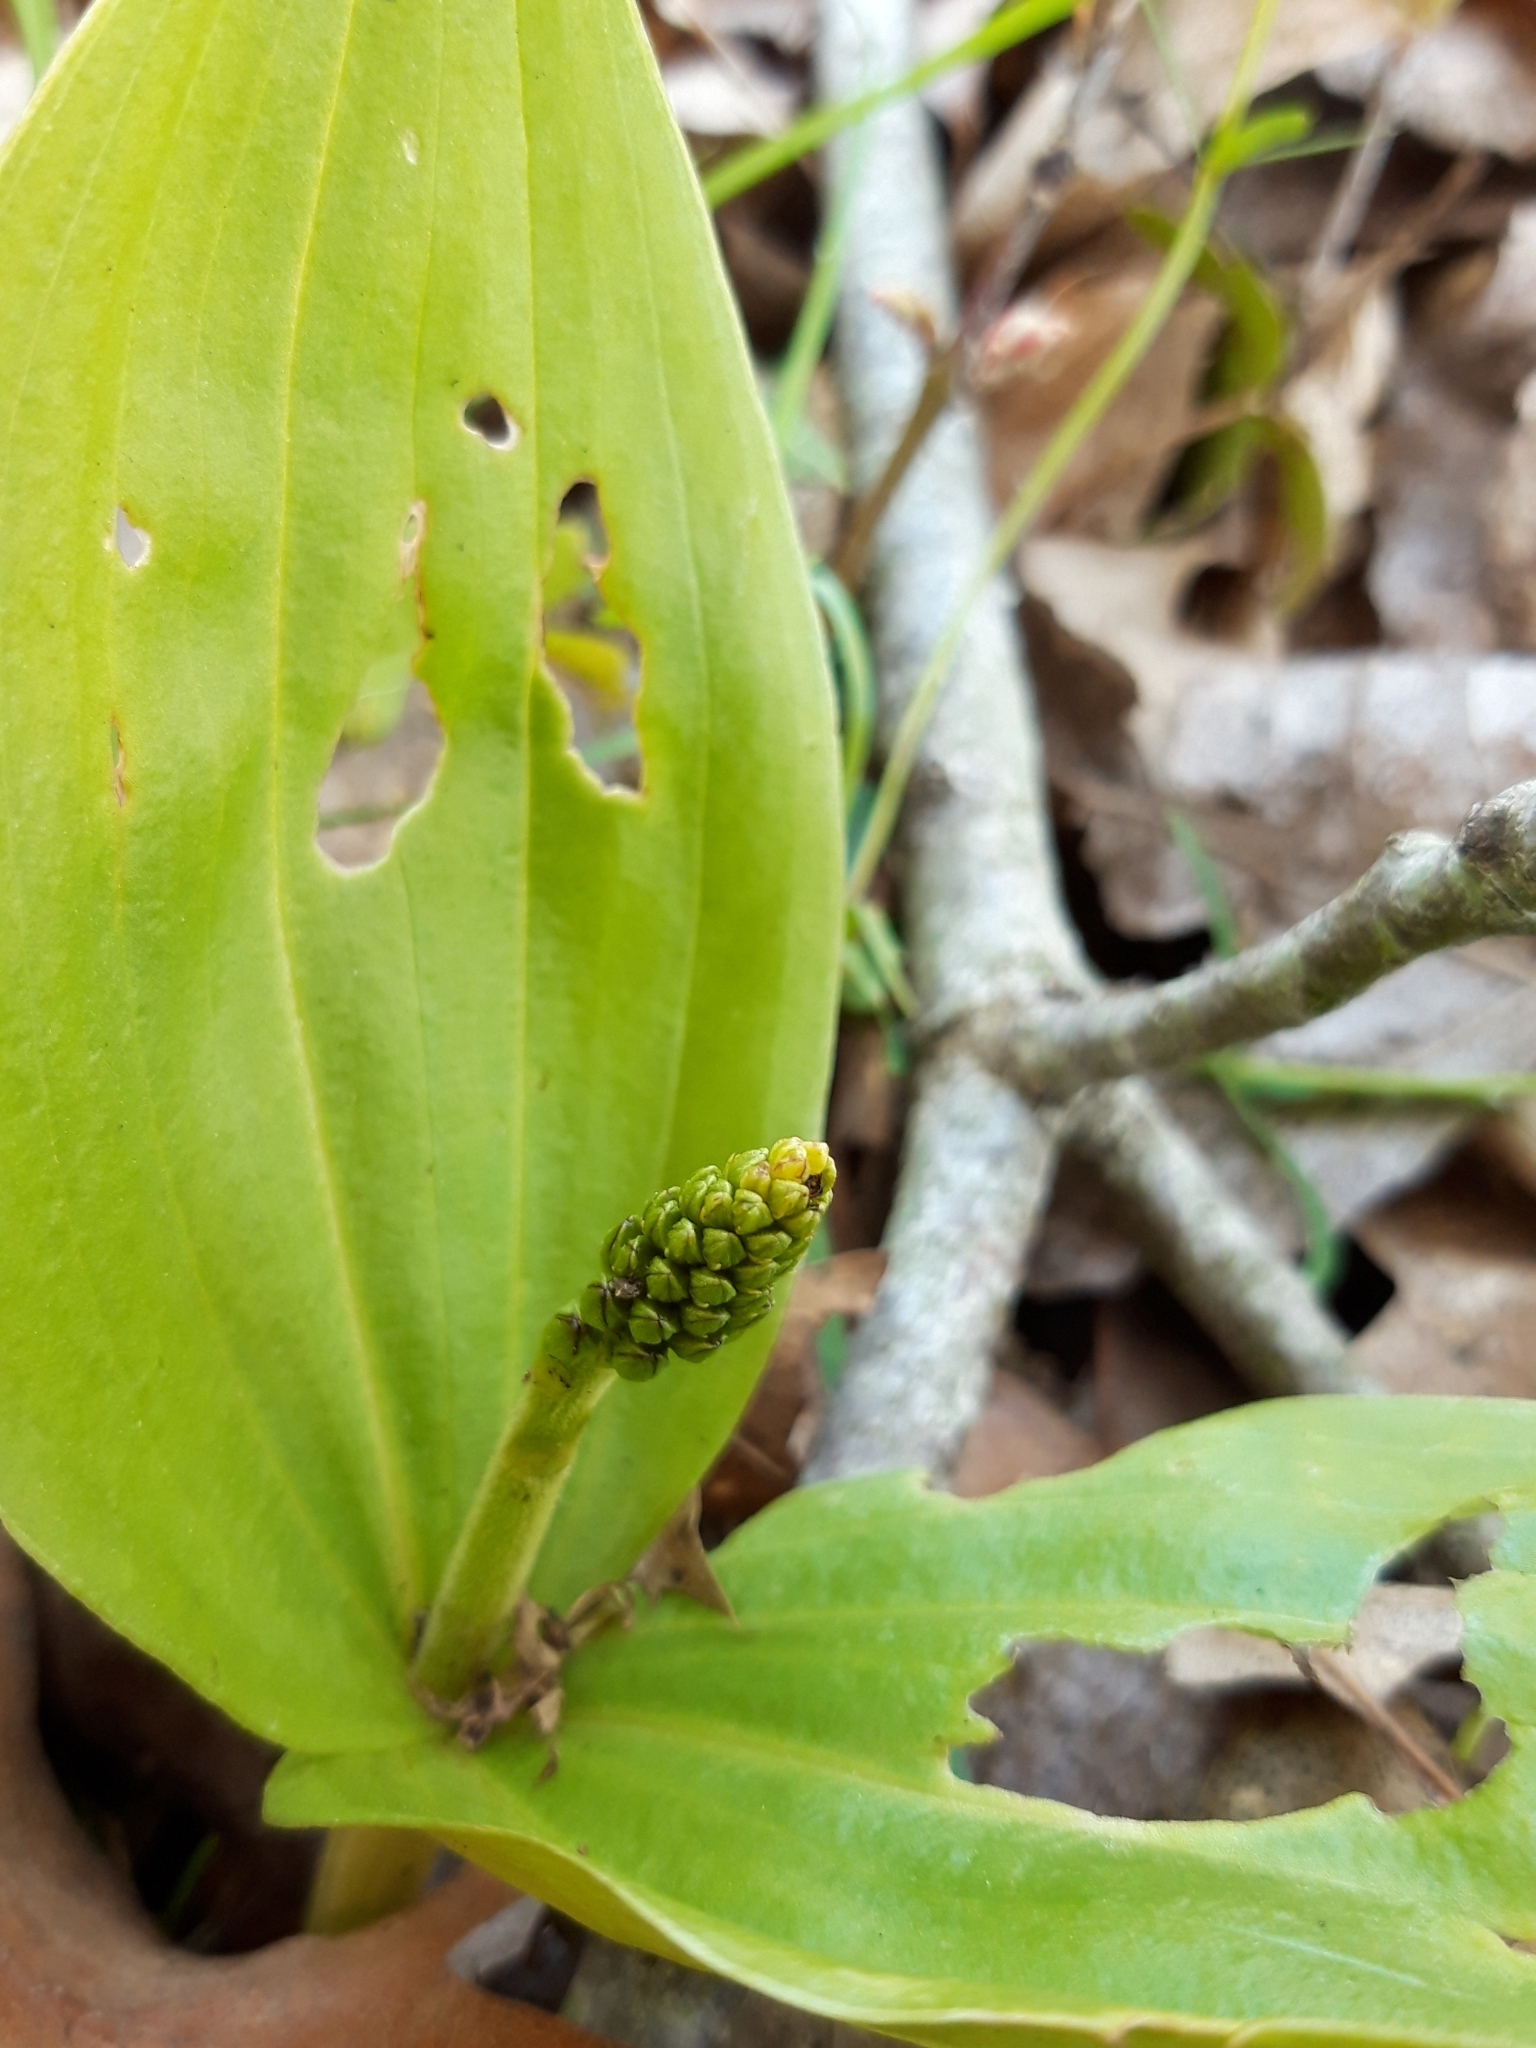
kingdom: Plantae
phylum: Tracheophyta
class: Liliopsida
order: Asparagales
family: Orchidaceae
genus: Neottia
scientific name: Neottia ovata
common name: Common twayblade
